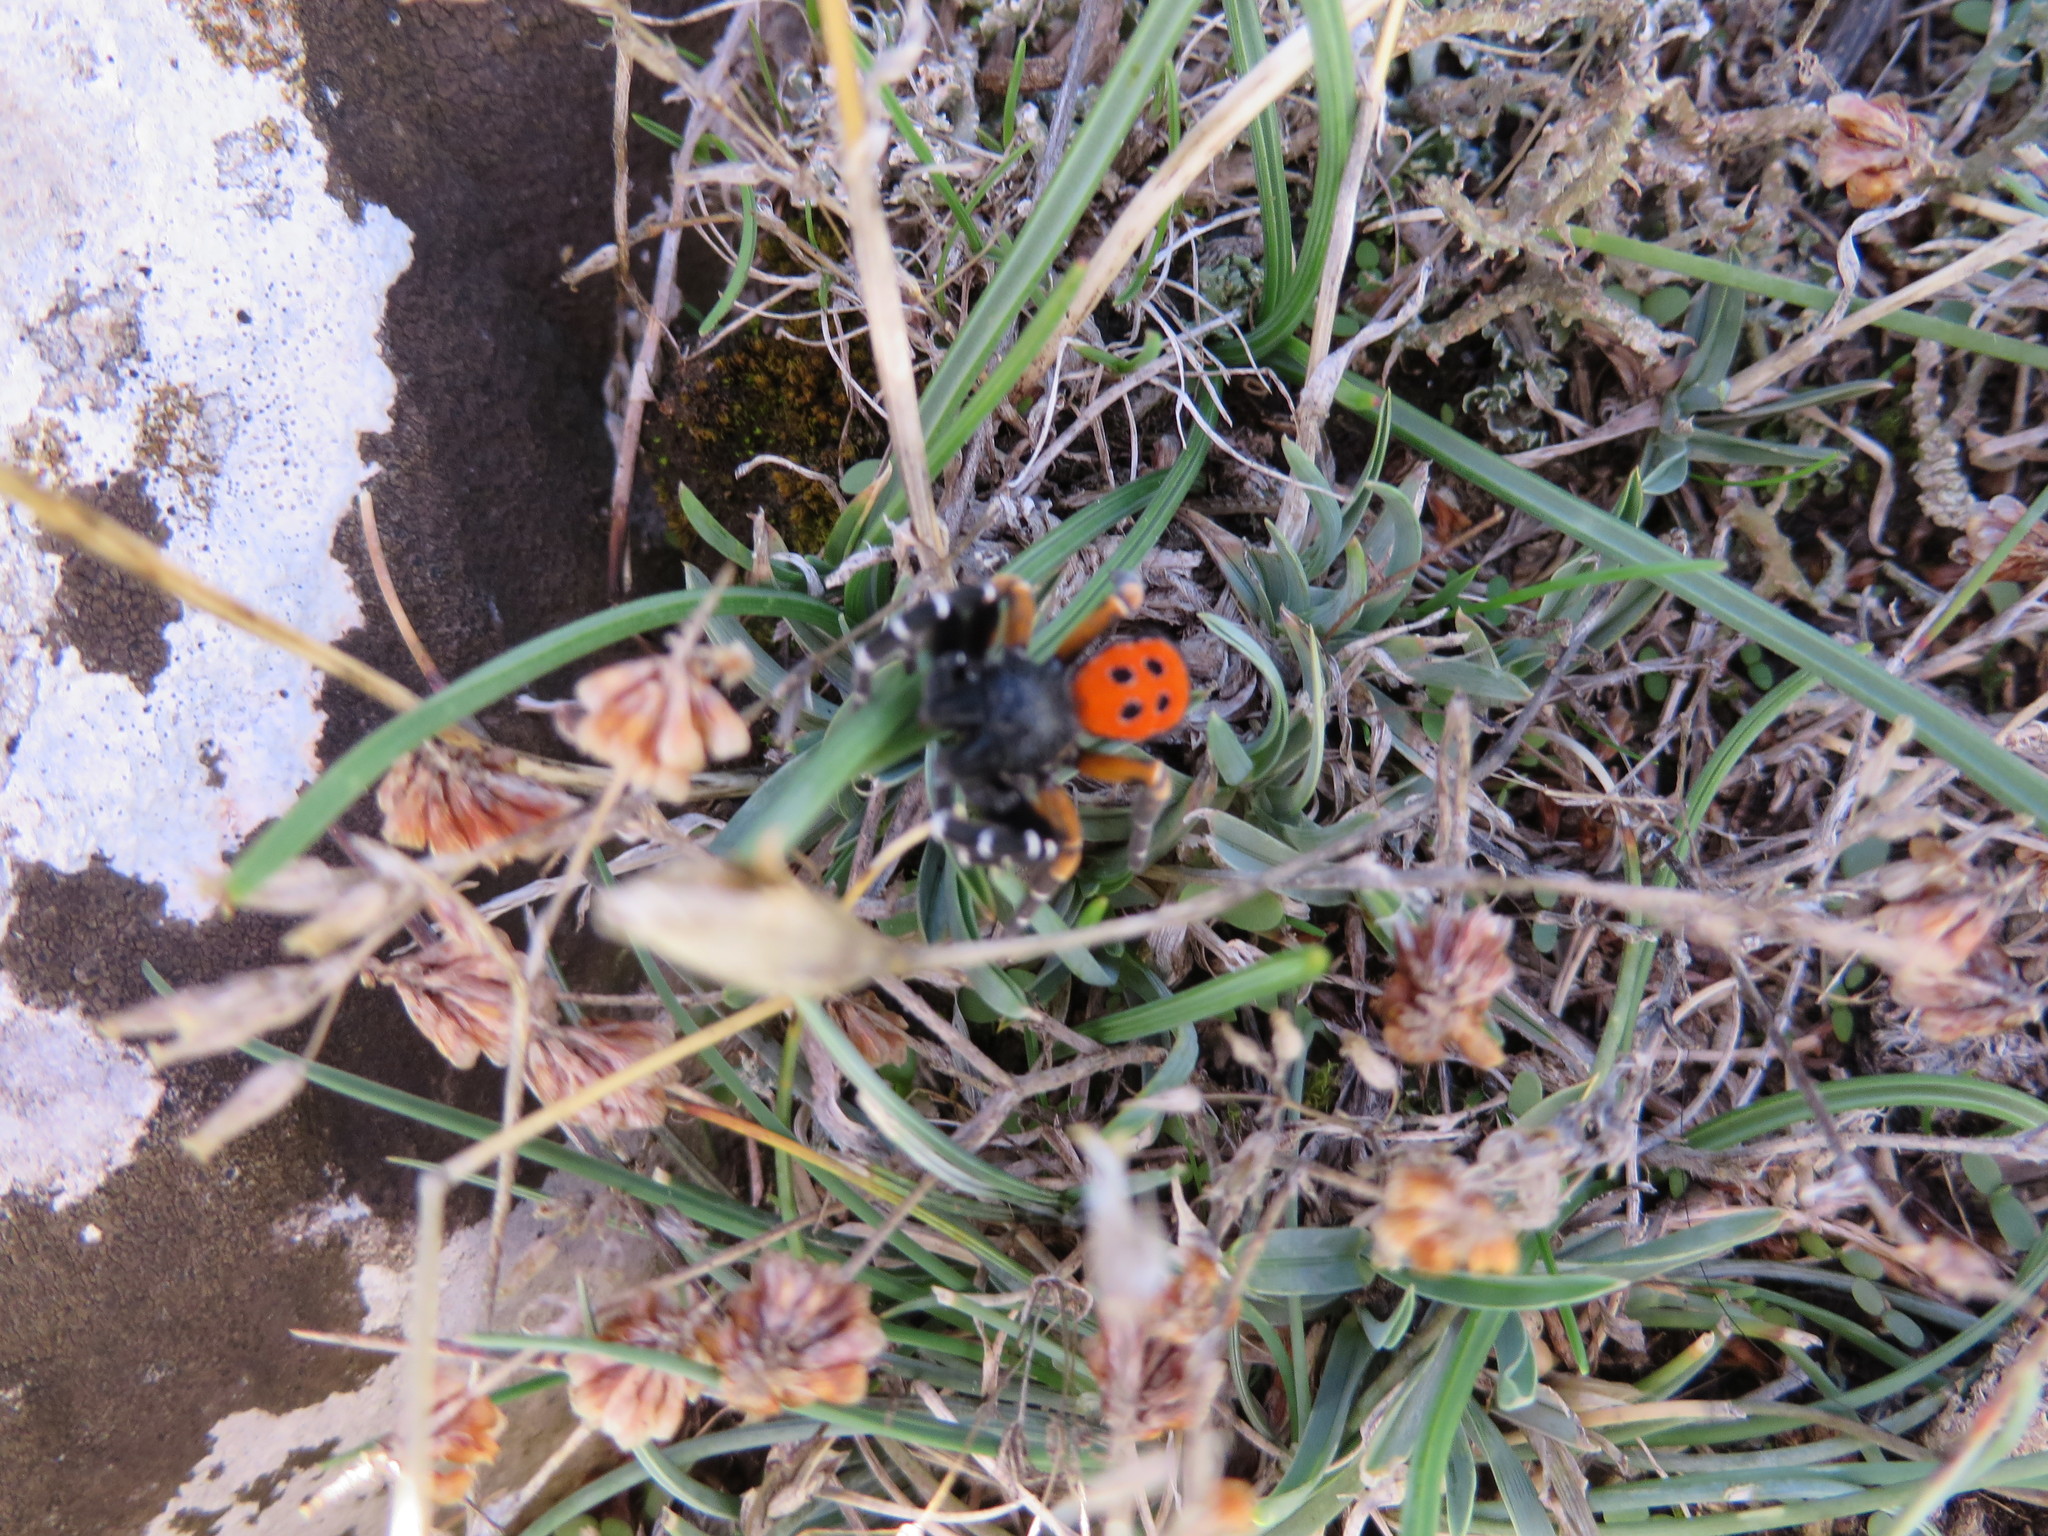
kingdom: Animalia
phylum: Arthropoda
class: Arachnida
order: Araneae
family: Eresidae
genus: Eresus
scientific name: Eresus kollari
